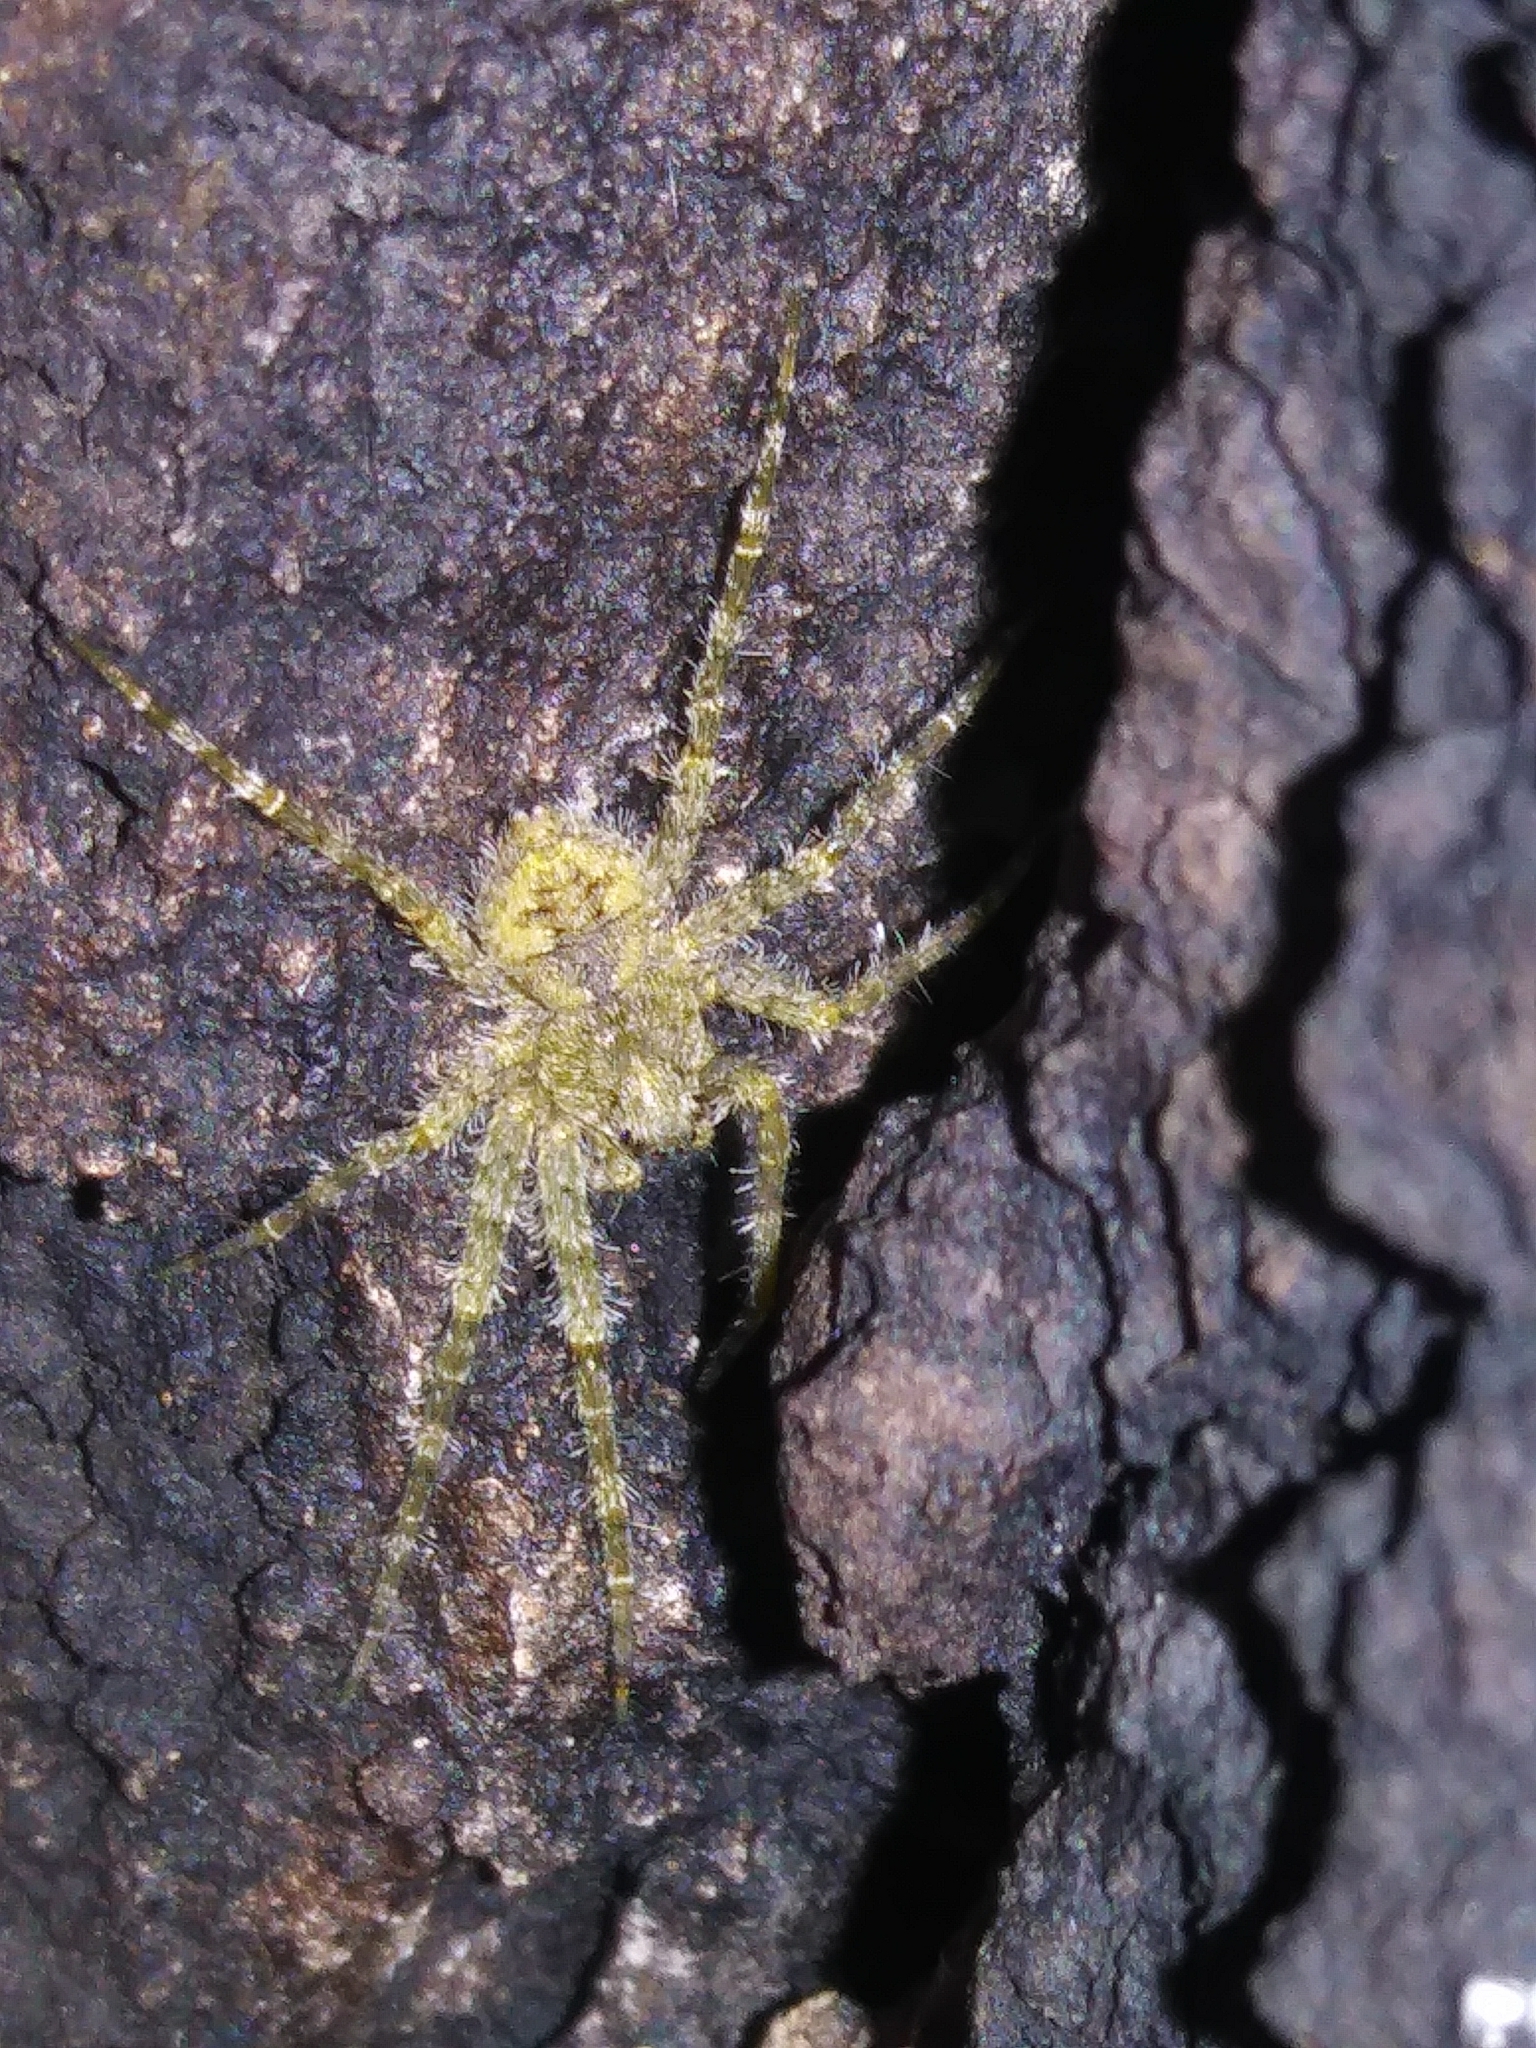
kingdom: Animalia
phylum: Arthropoda
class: Arachnida
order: Araneae
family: Pisauridae
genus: Dolomedes
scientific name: Dolomedes albineus
